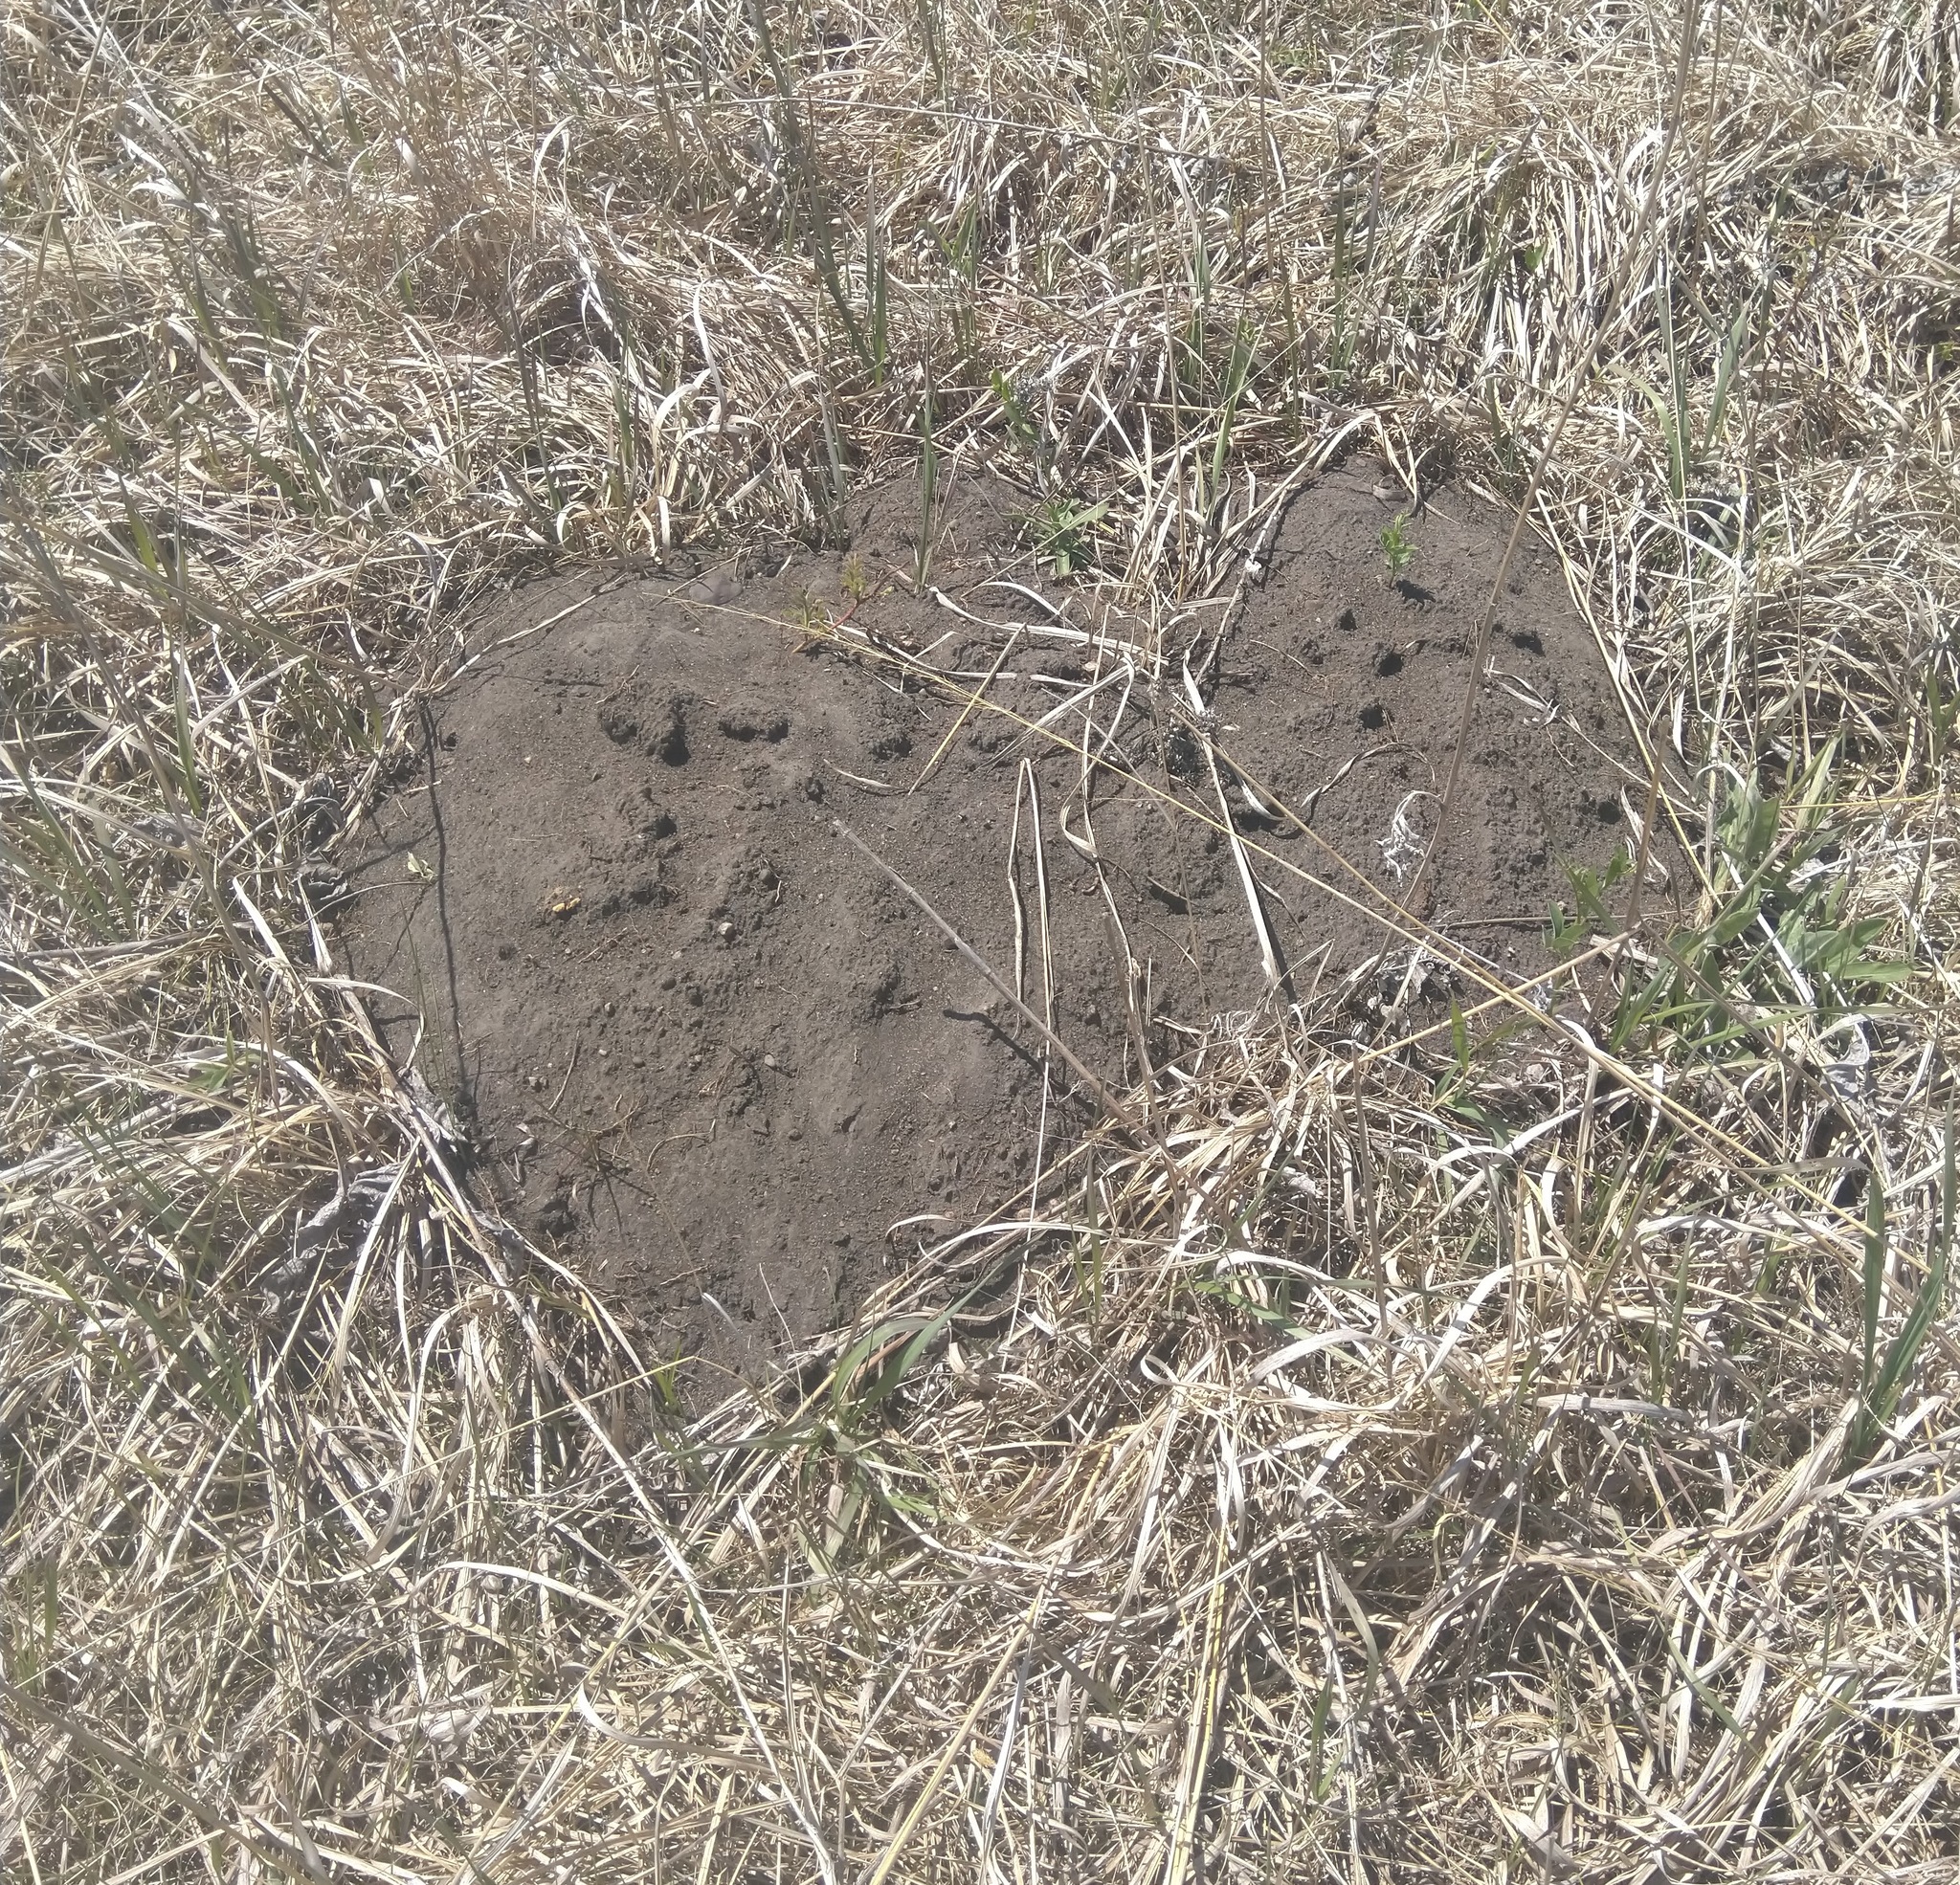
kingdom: Animalia
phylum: Chordata
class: Mammalia
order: Rodentia
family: Geomyidae
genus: Geomys
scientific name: Geomys bursarius
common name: Plains pocket gopher
